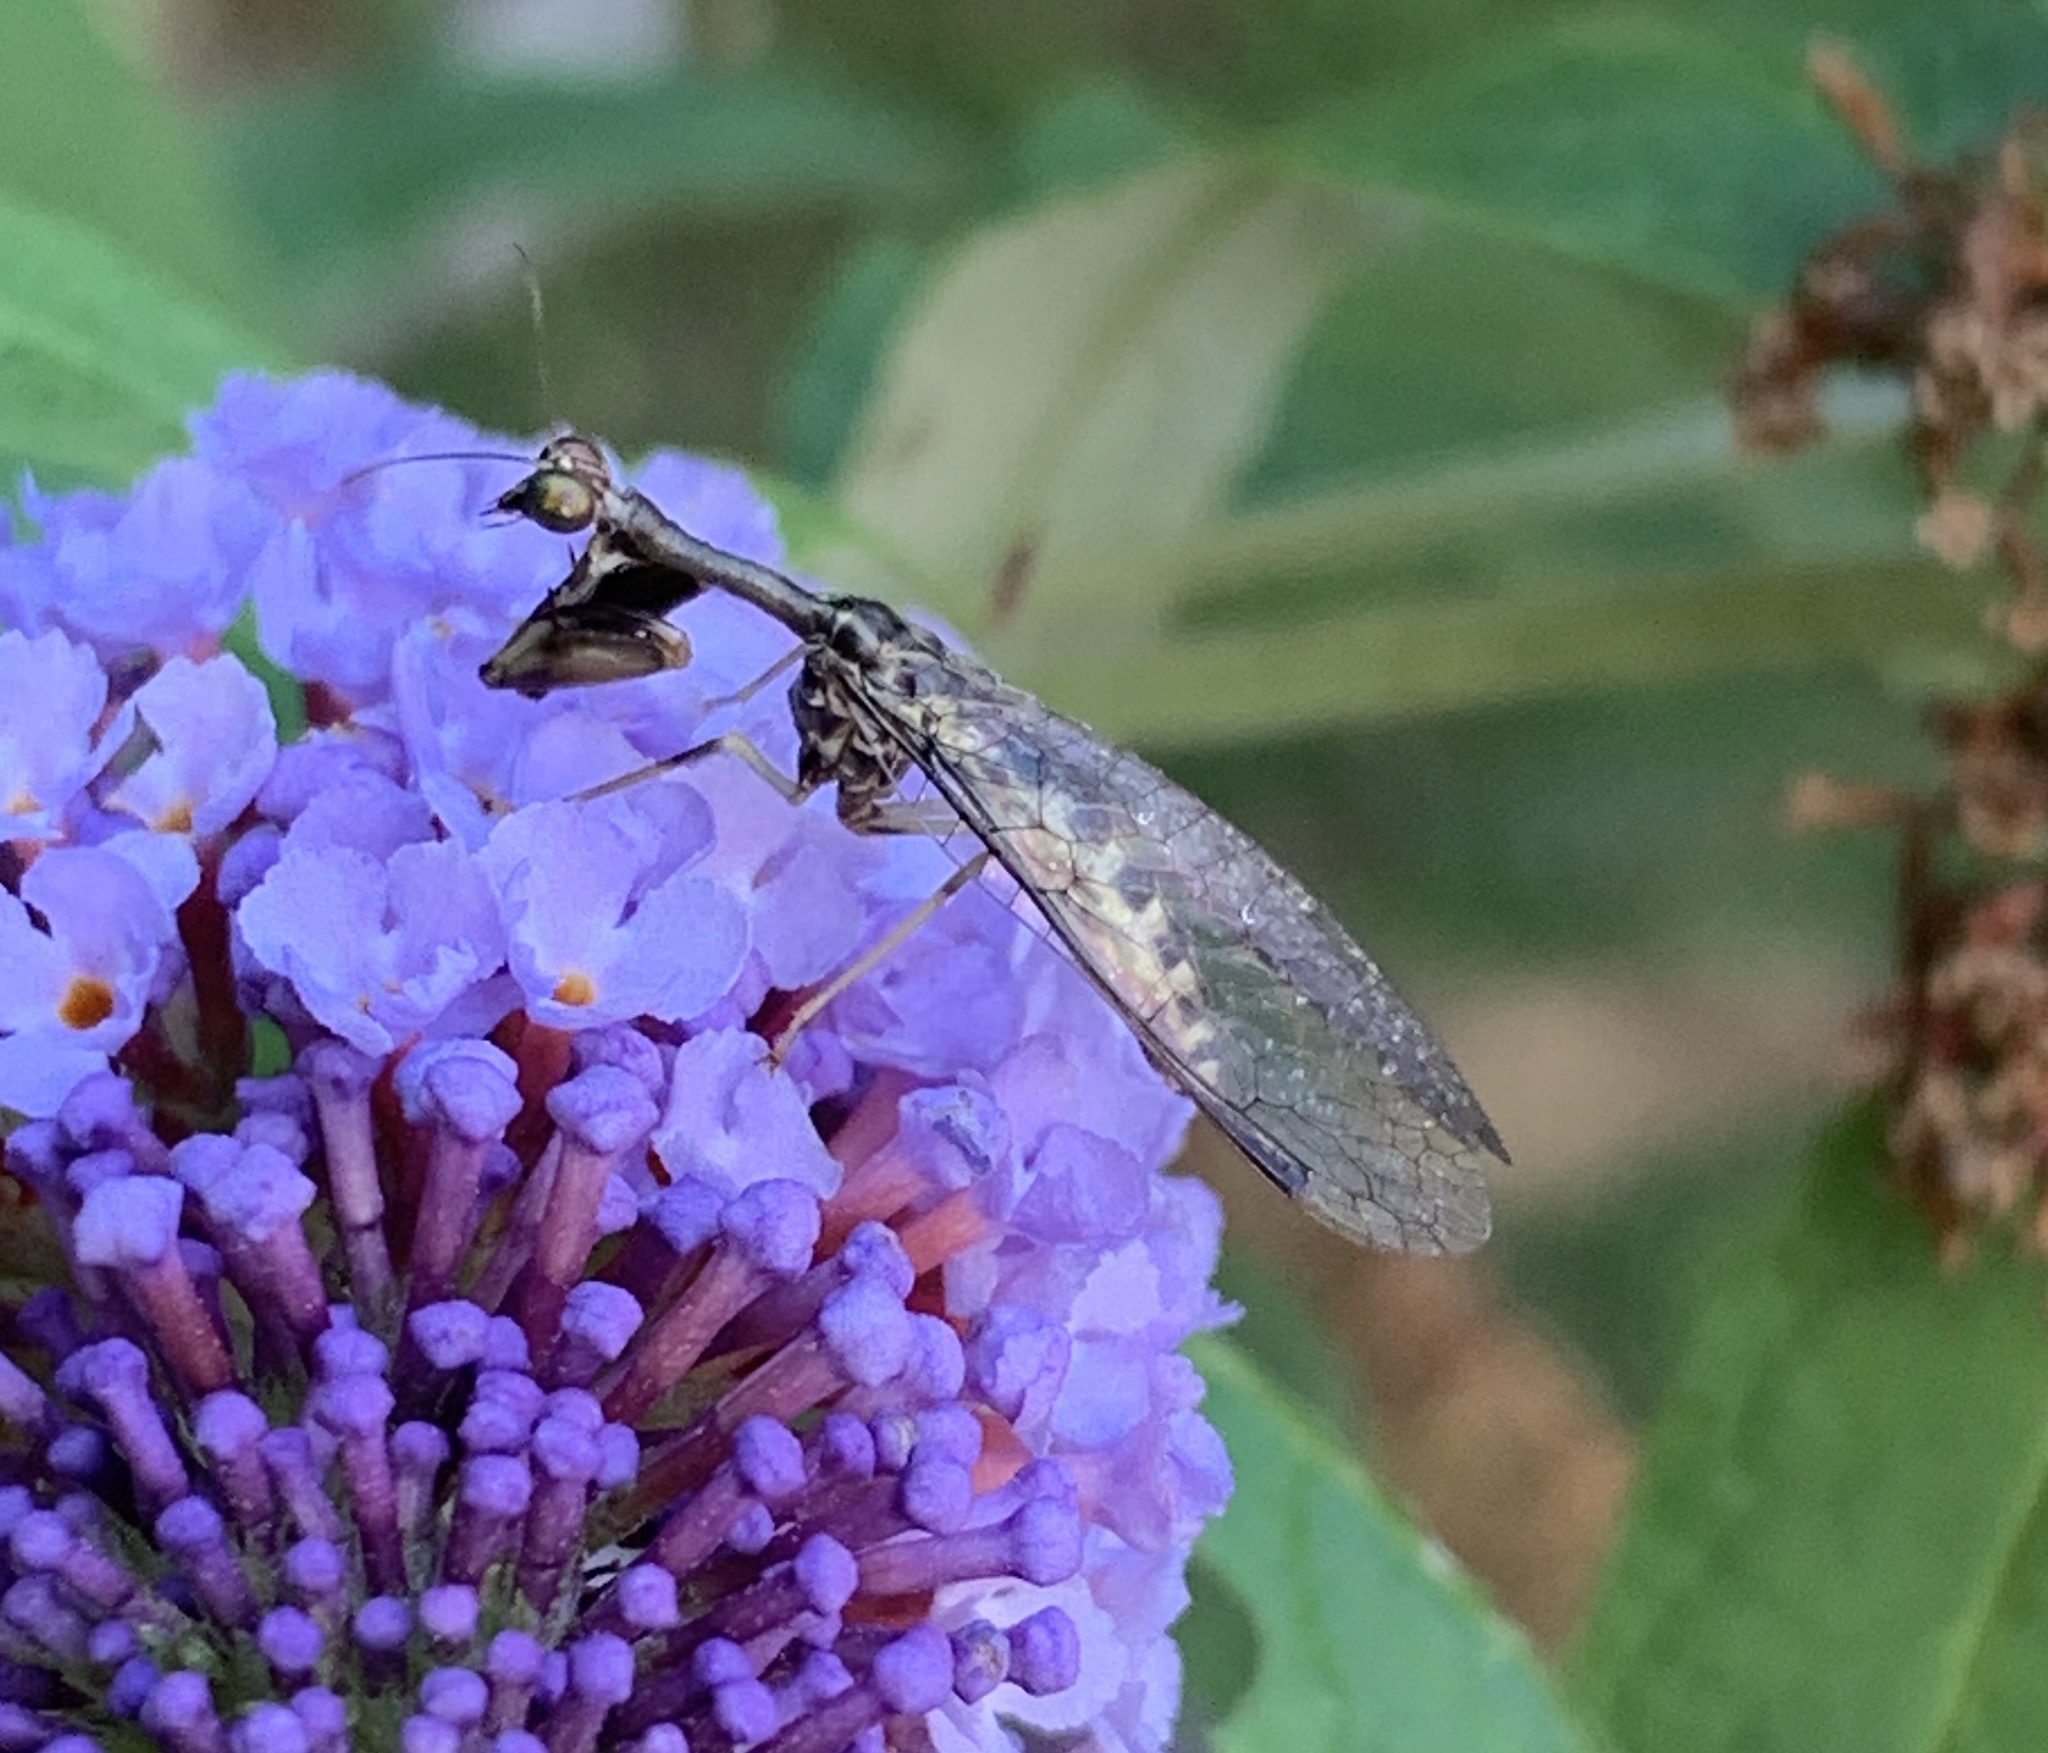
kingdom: Animalia
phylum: Arthropoda
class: Insecta
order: Neuroptera
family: Mantispidae
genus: Dicromantispa
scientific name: Dicromantispa sayi
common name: Say's mantidfly
